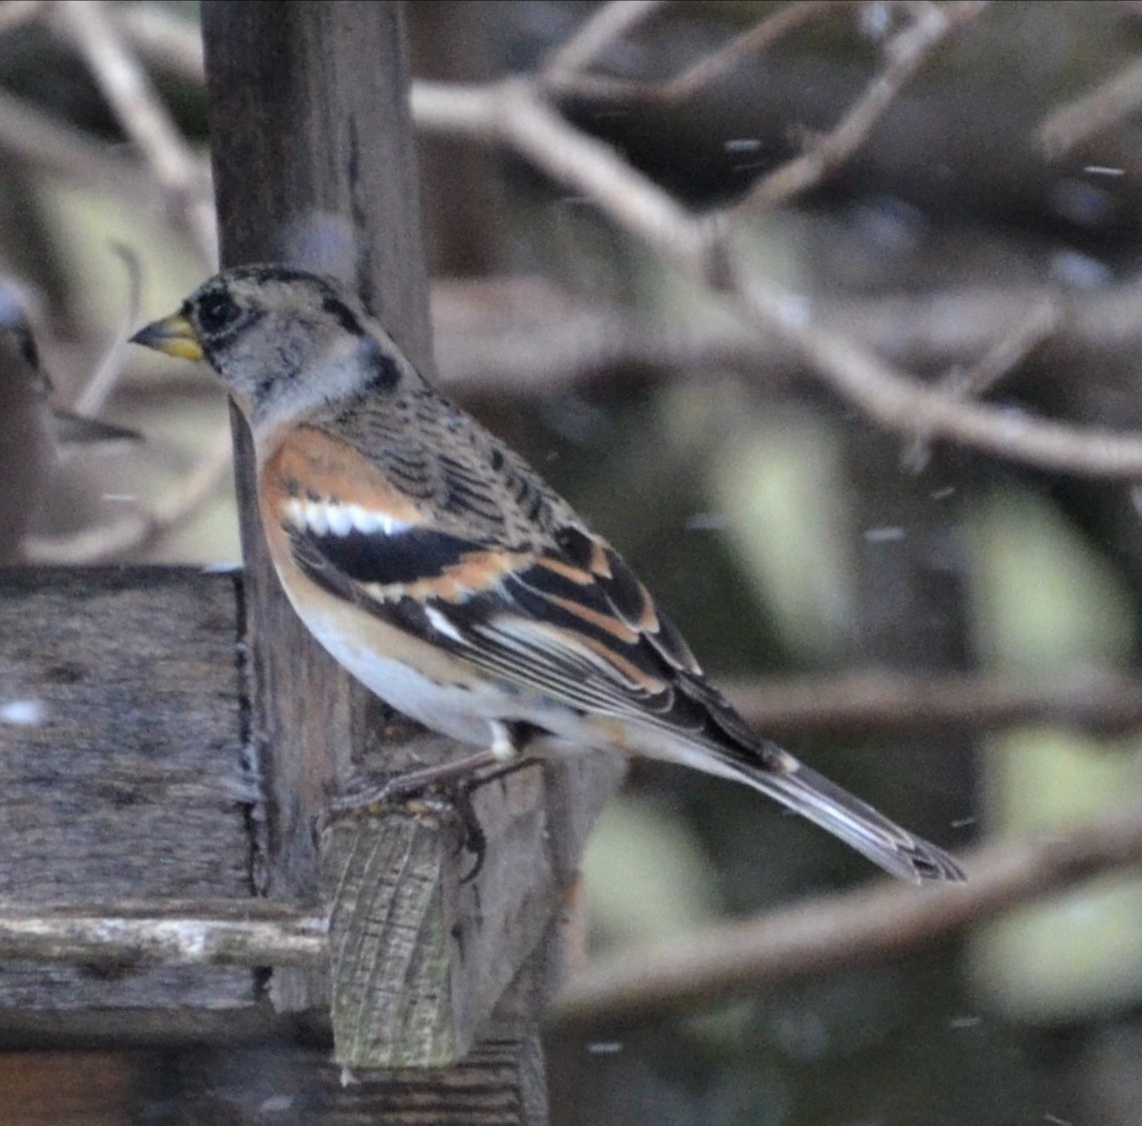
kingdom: Animalia
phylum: Chordata
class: Aves
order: Passeriformes
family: Fringillidae
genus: Fringilla
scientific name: Fringilla montifringilla
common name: Brambling
